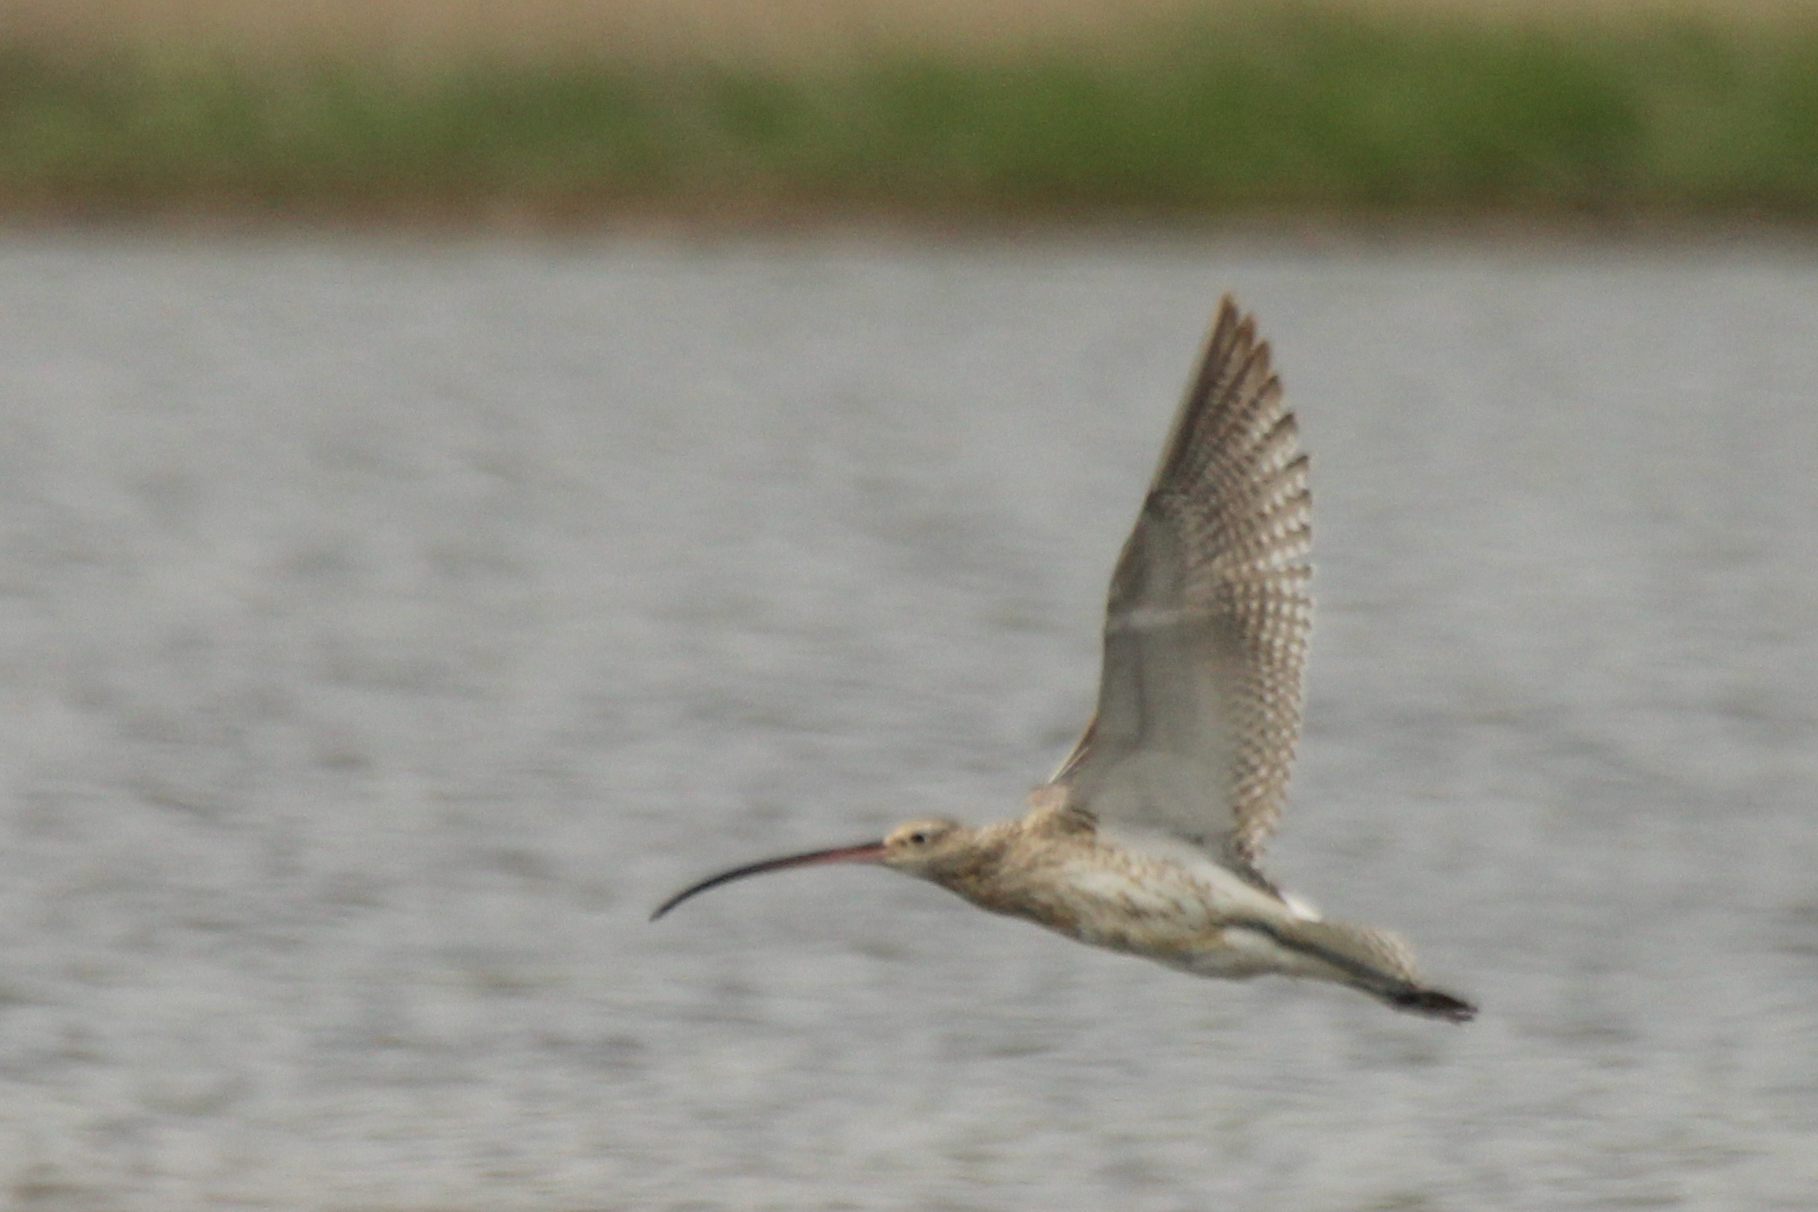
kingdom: Animalia
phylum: Chordata
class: Aves
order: Charadriiformes
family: Scolopacidae
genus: Numenius
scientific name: Numenius arquata
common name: Eurasian curlew
